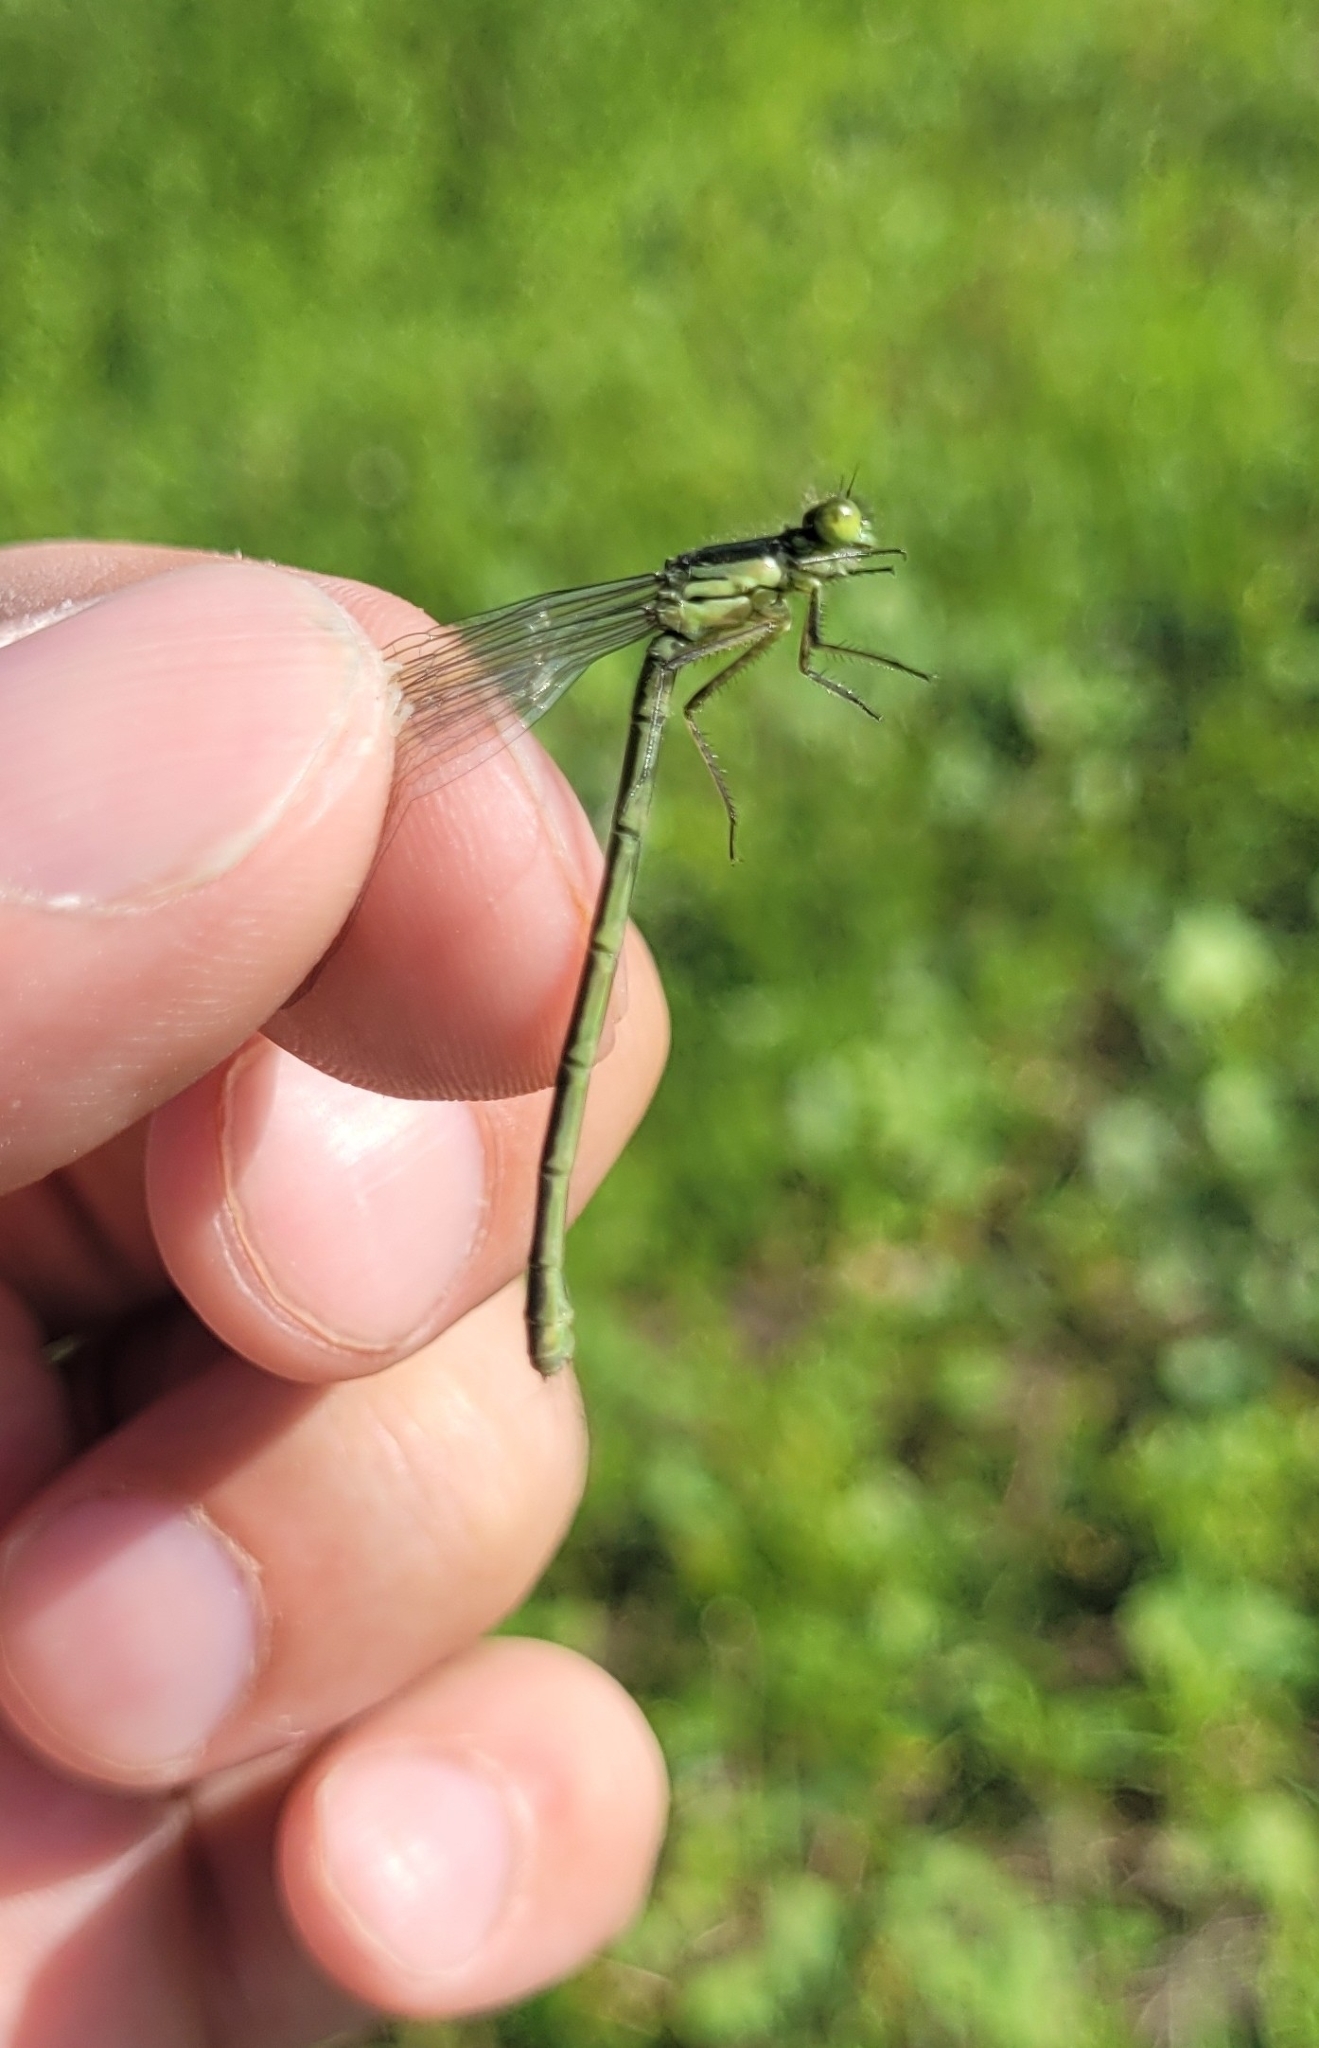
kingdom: Animalia
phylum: Arthropoda
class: Insecta
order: Odonata
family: Coenagrionidae
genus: Erythromma
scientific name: Erythromma najas
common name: Red-eyed damselfly
